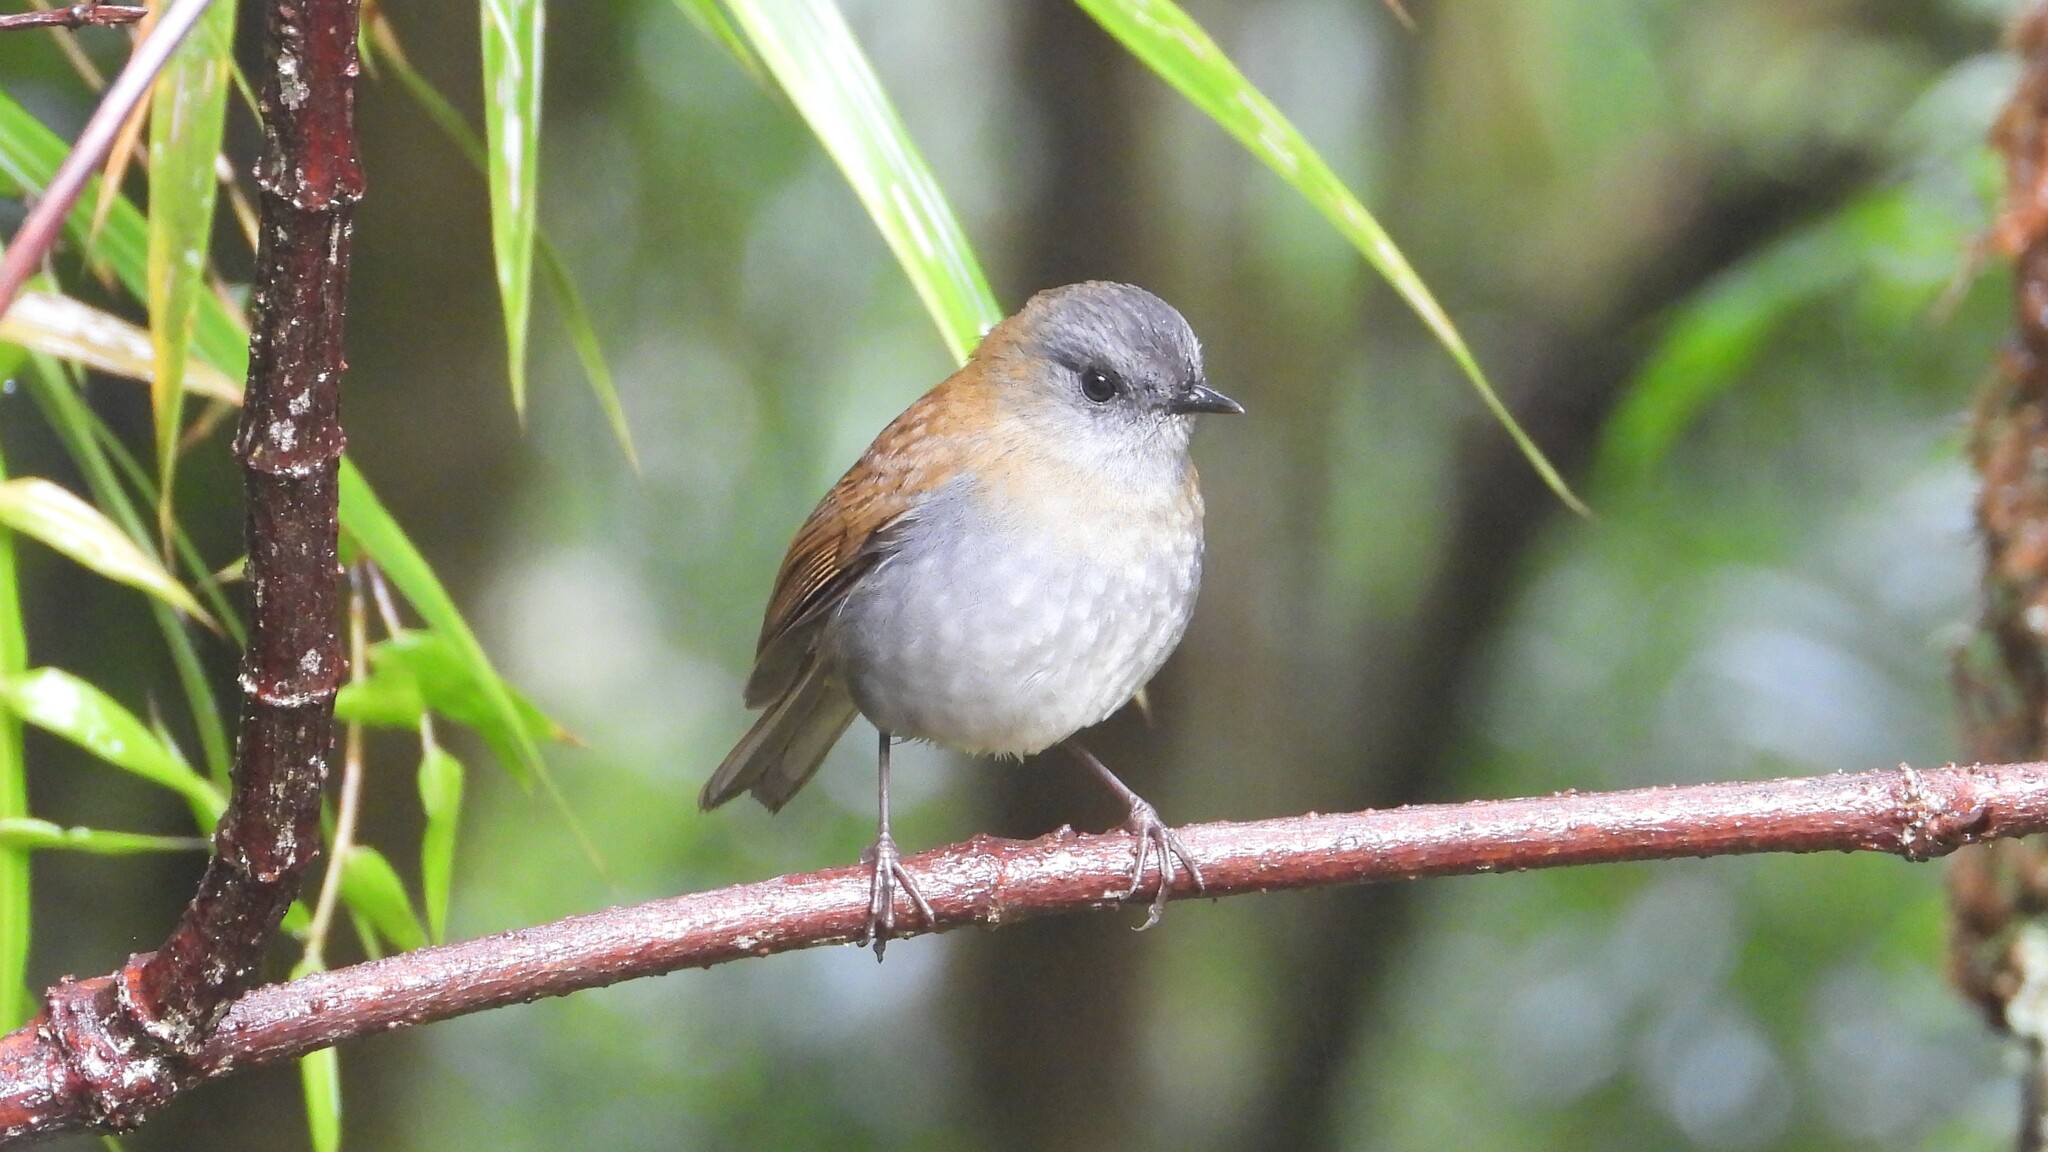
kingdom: Animalia
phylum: Chordata
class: Aves
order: Passeriformes
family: Turdidae
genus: Catharus
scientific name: Catharus gracilirostris
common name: Black-billed nightingale-thrush
